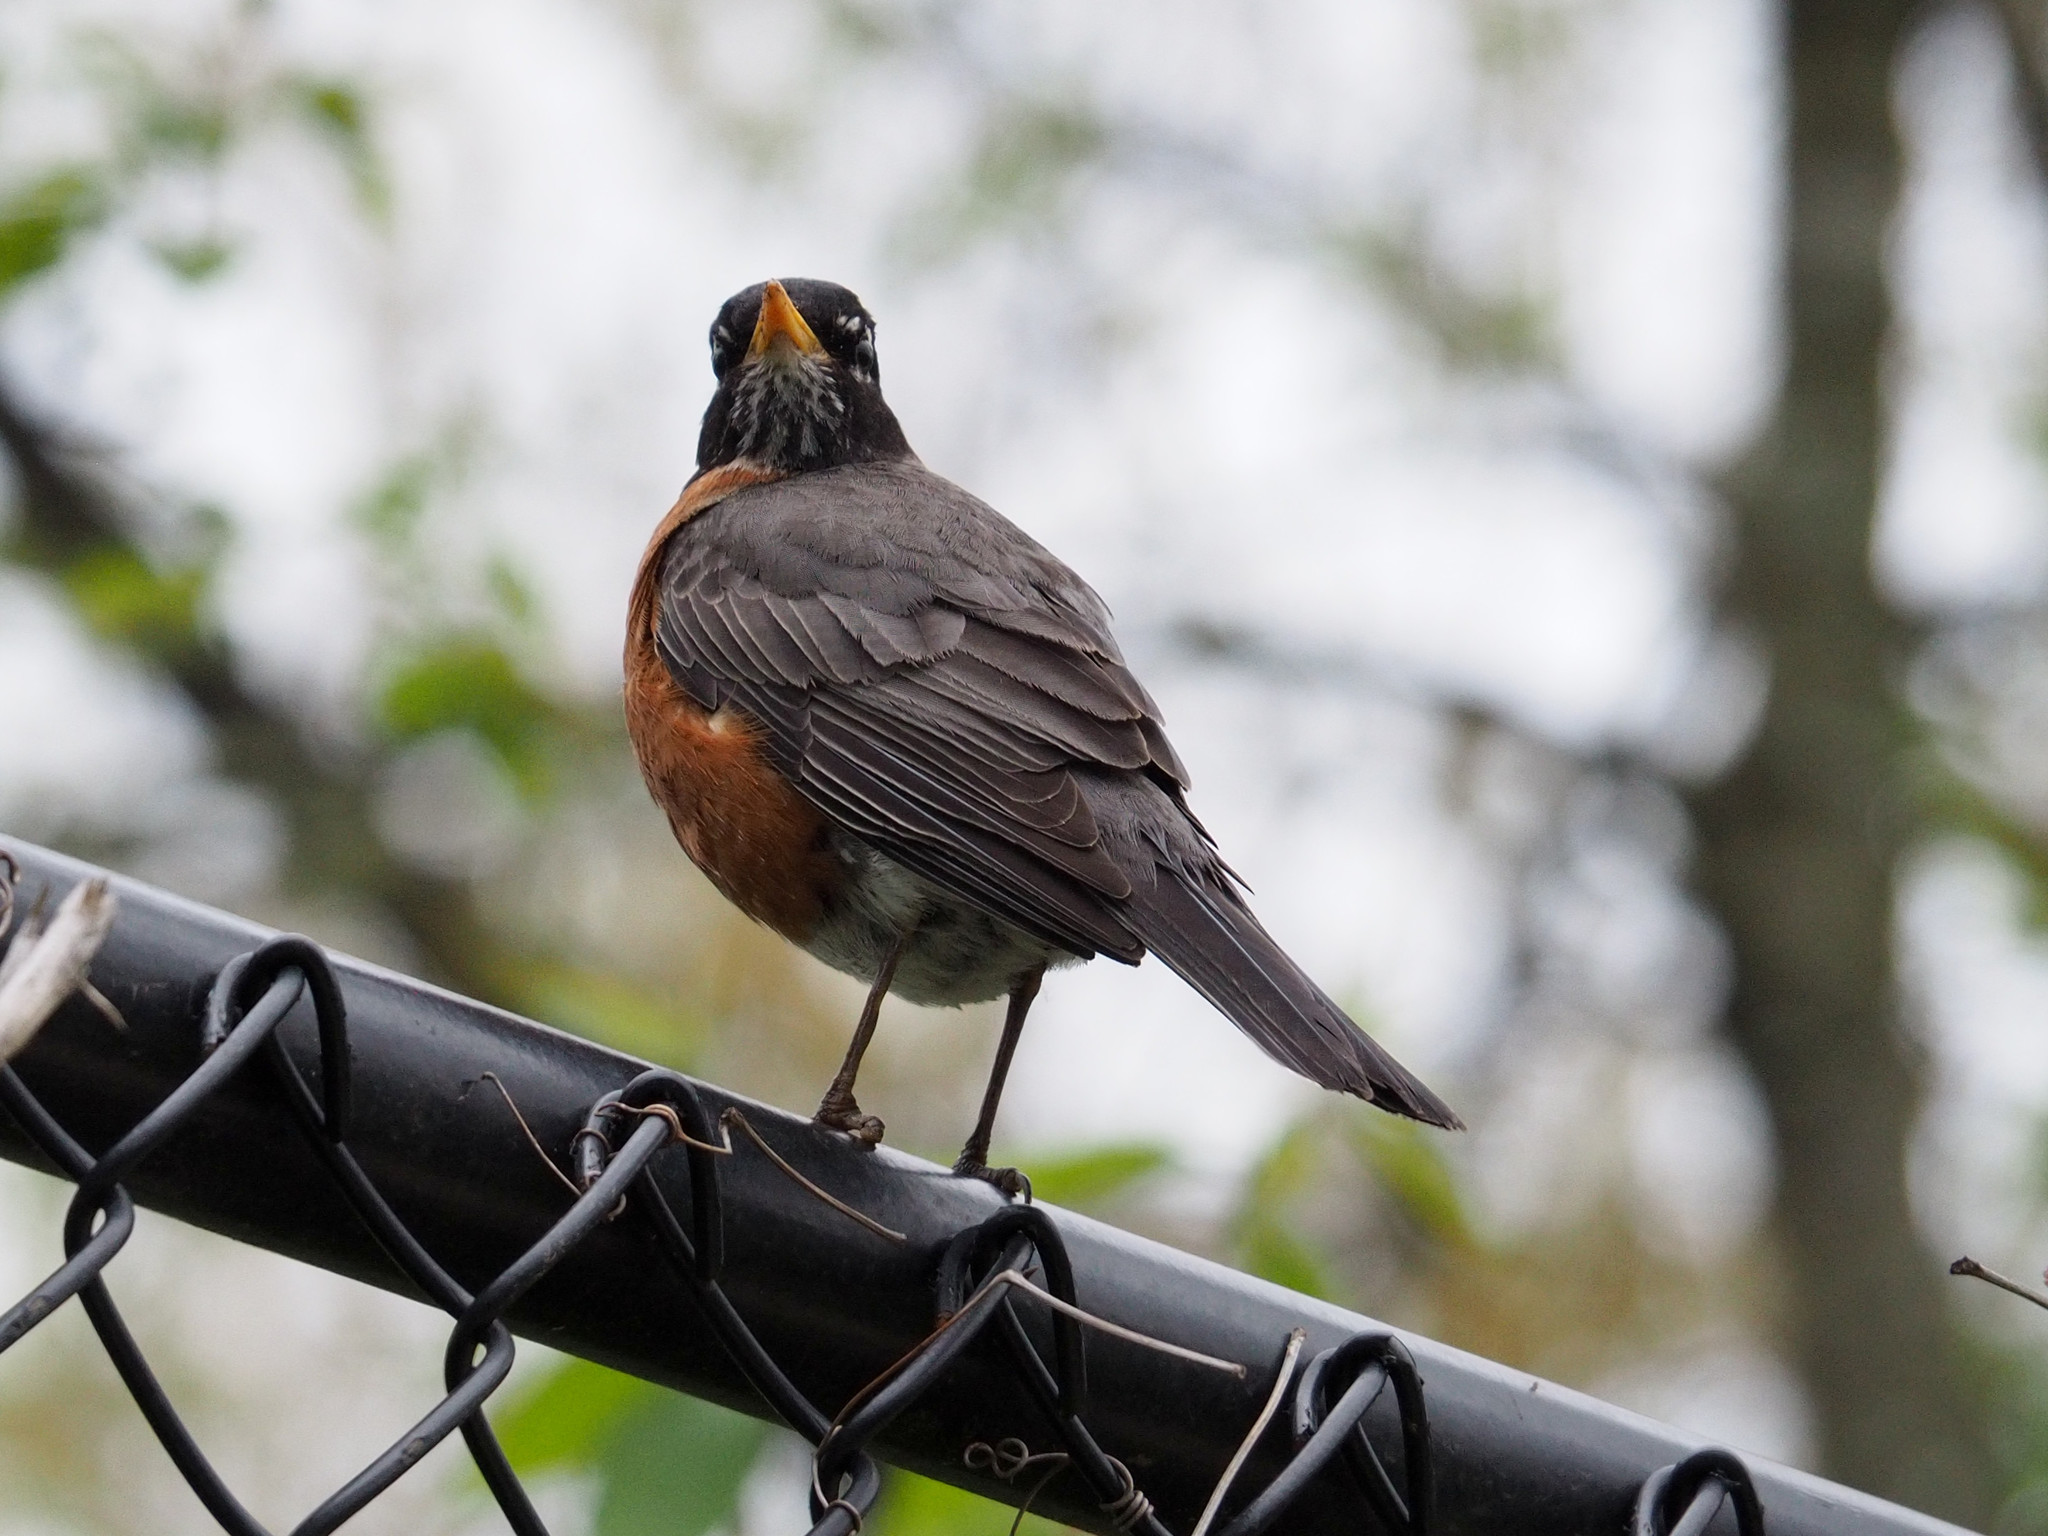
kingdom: Animalia
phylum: Chordata
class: Aves
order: Passeriformes
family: Turdidae
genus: Turdus
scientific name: Turdus migratorius
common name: American robin
